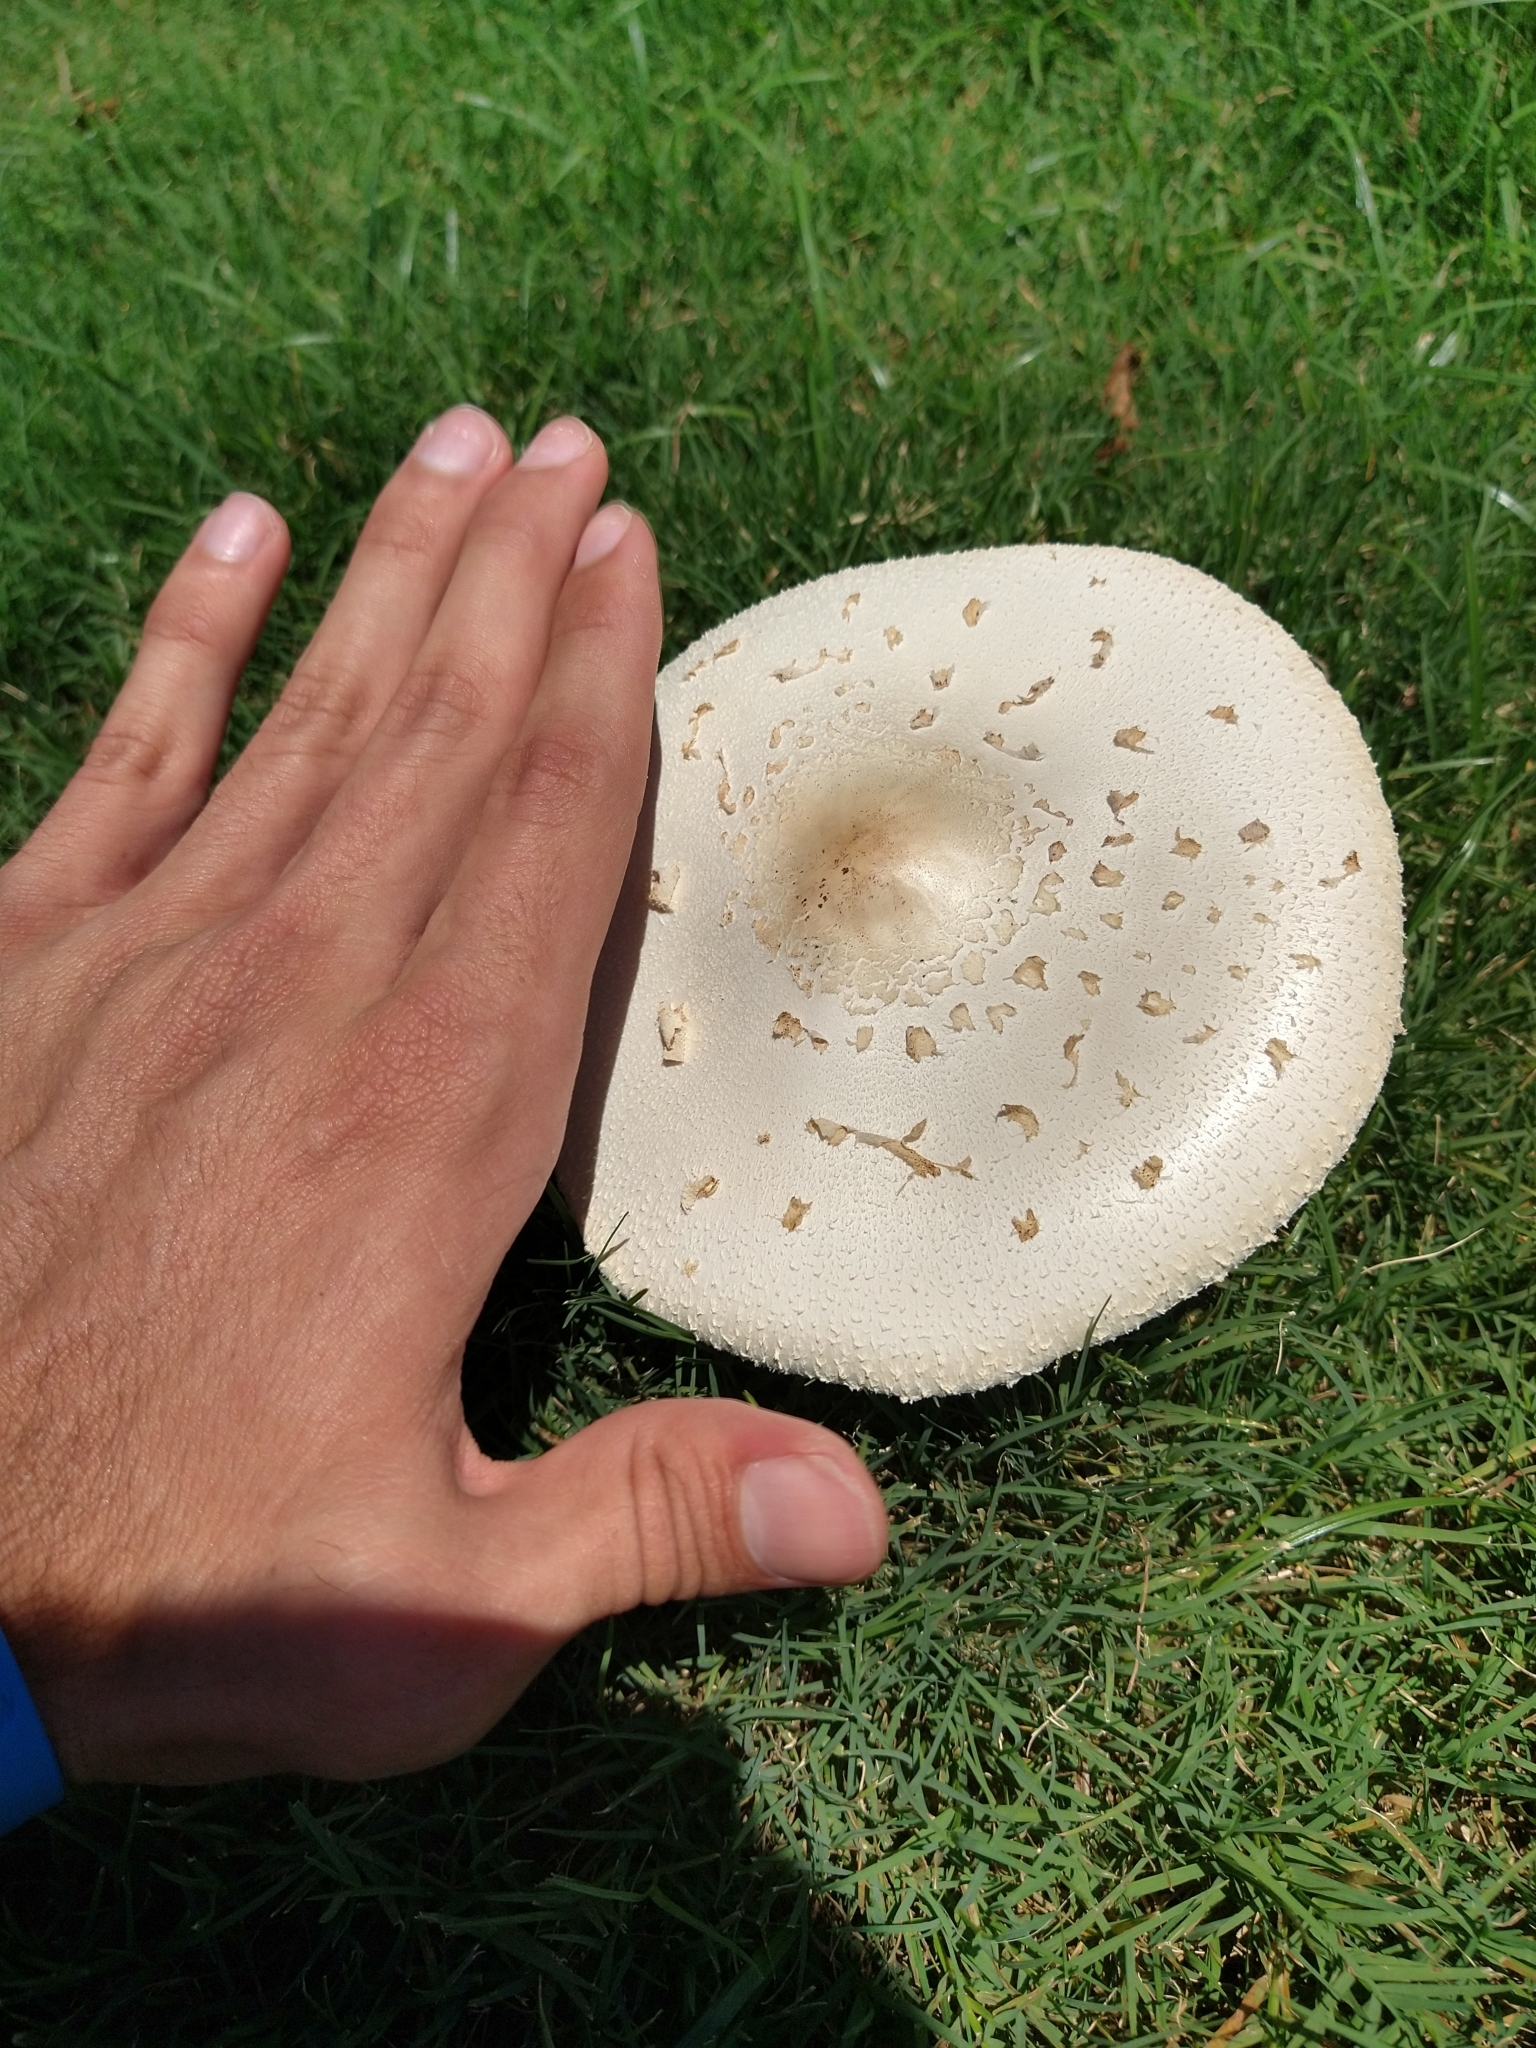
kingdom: Fungi
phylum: Basidiomycota
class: Agaricomycetes
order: Agaricales
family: Agaricaceae
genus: Chlorophyllum
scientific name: Chlorophyllum molybdites
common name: False parasol
